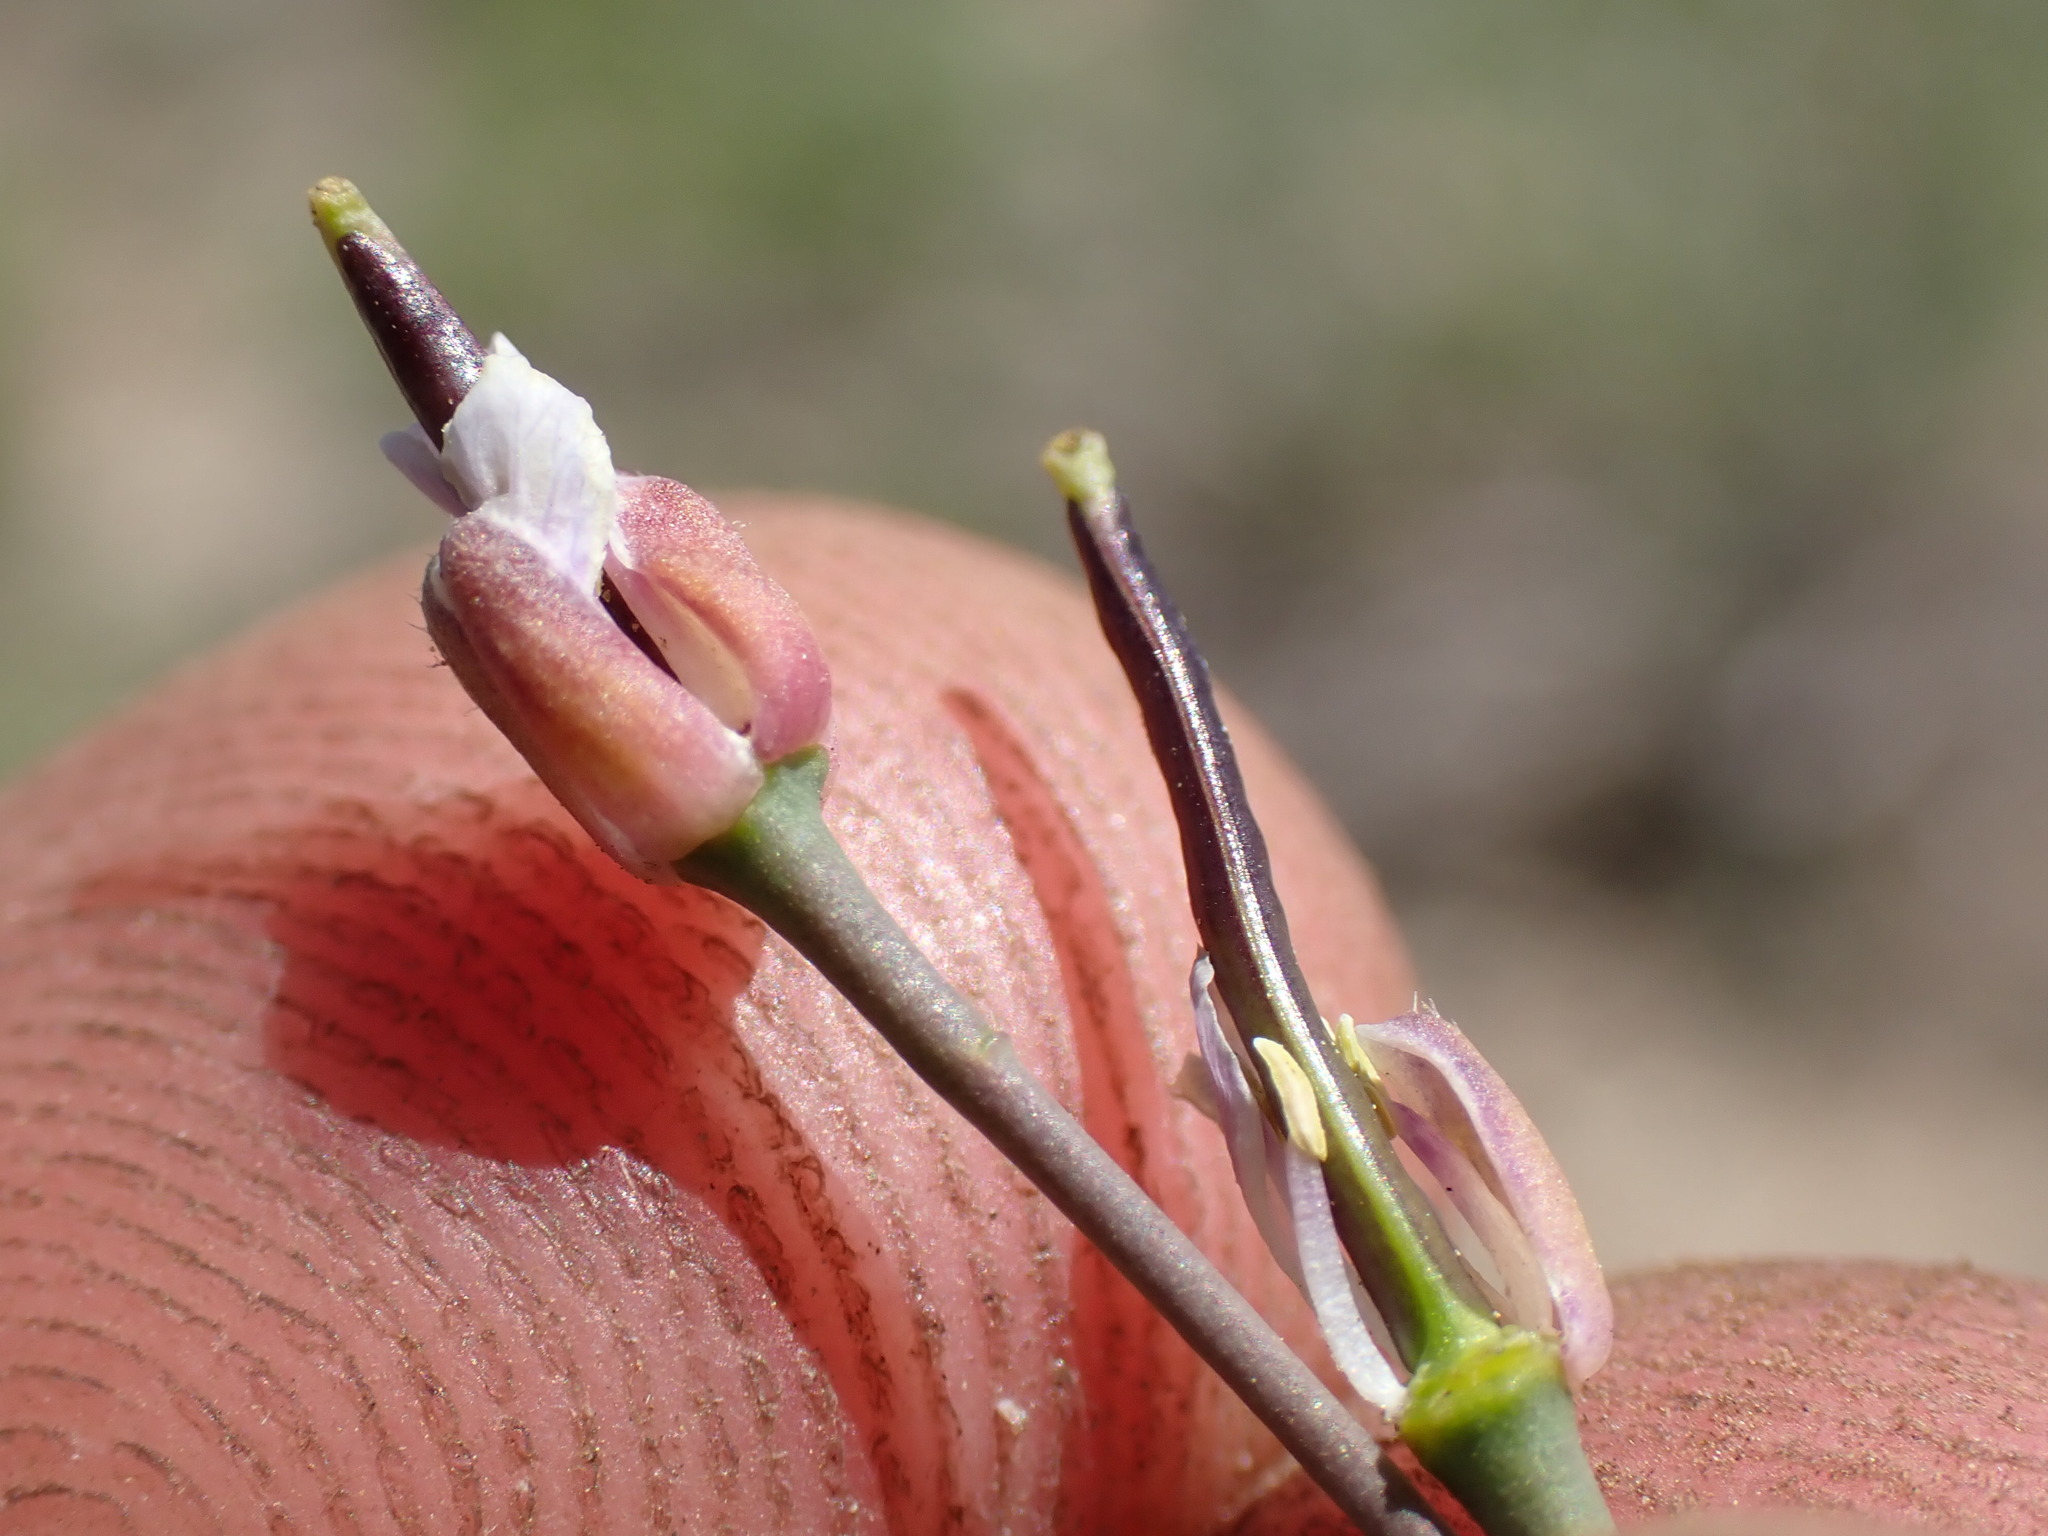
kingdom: Plantae
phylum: Tracheophyta
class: Magnoliopsida
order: Brassicales
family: Brassicaceae
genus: Boechera
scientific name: Boechera platysperma
